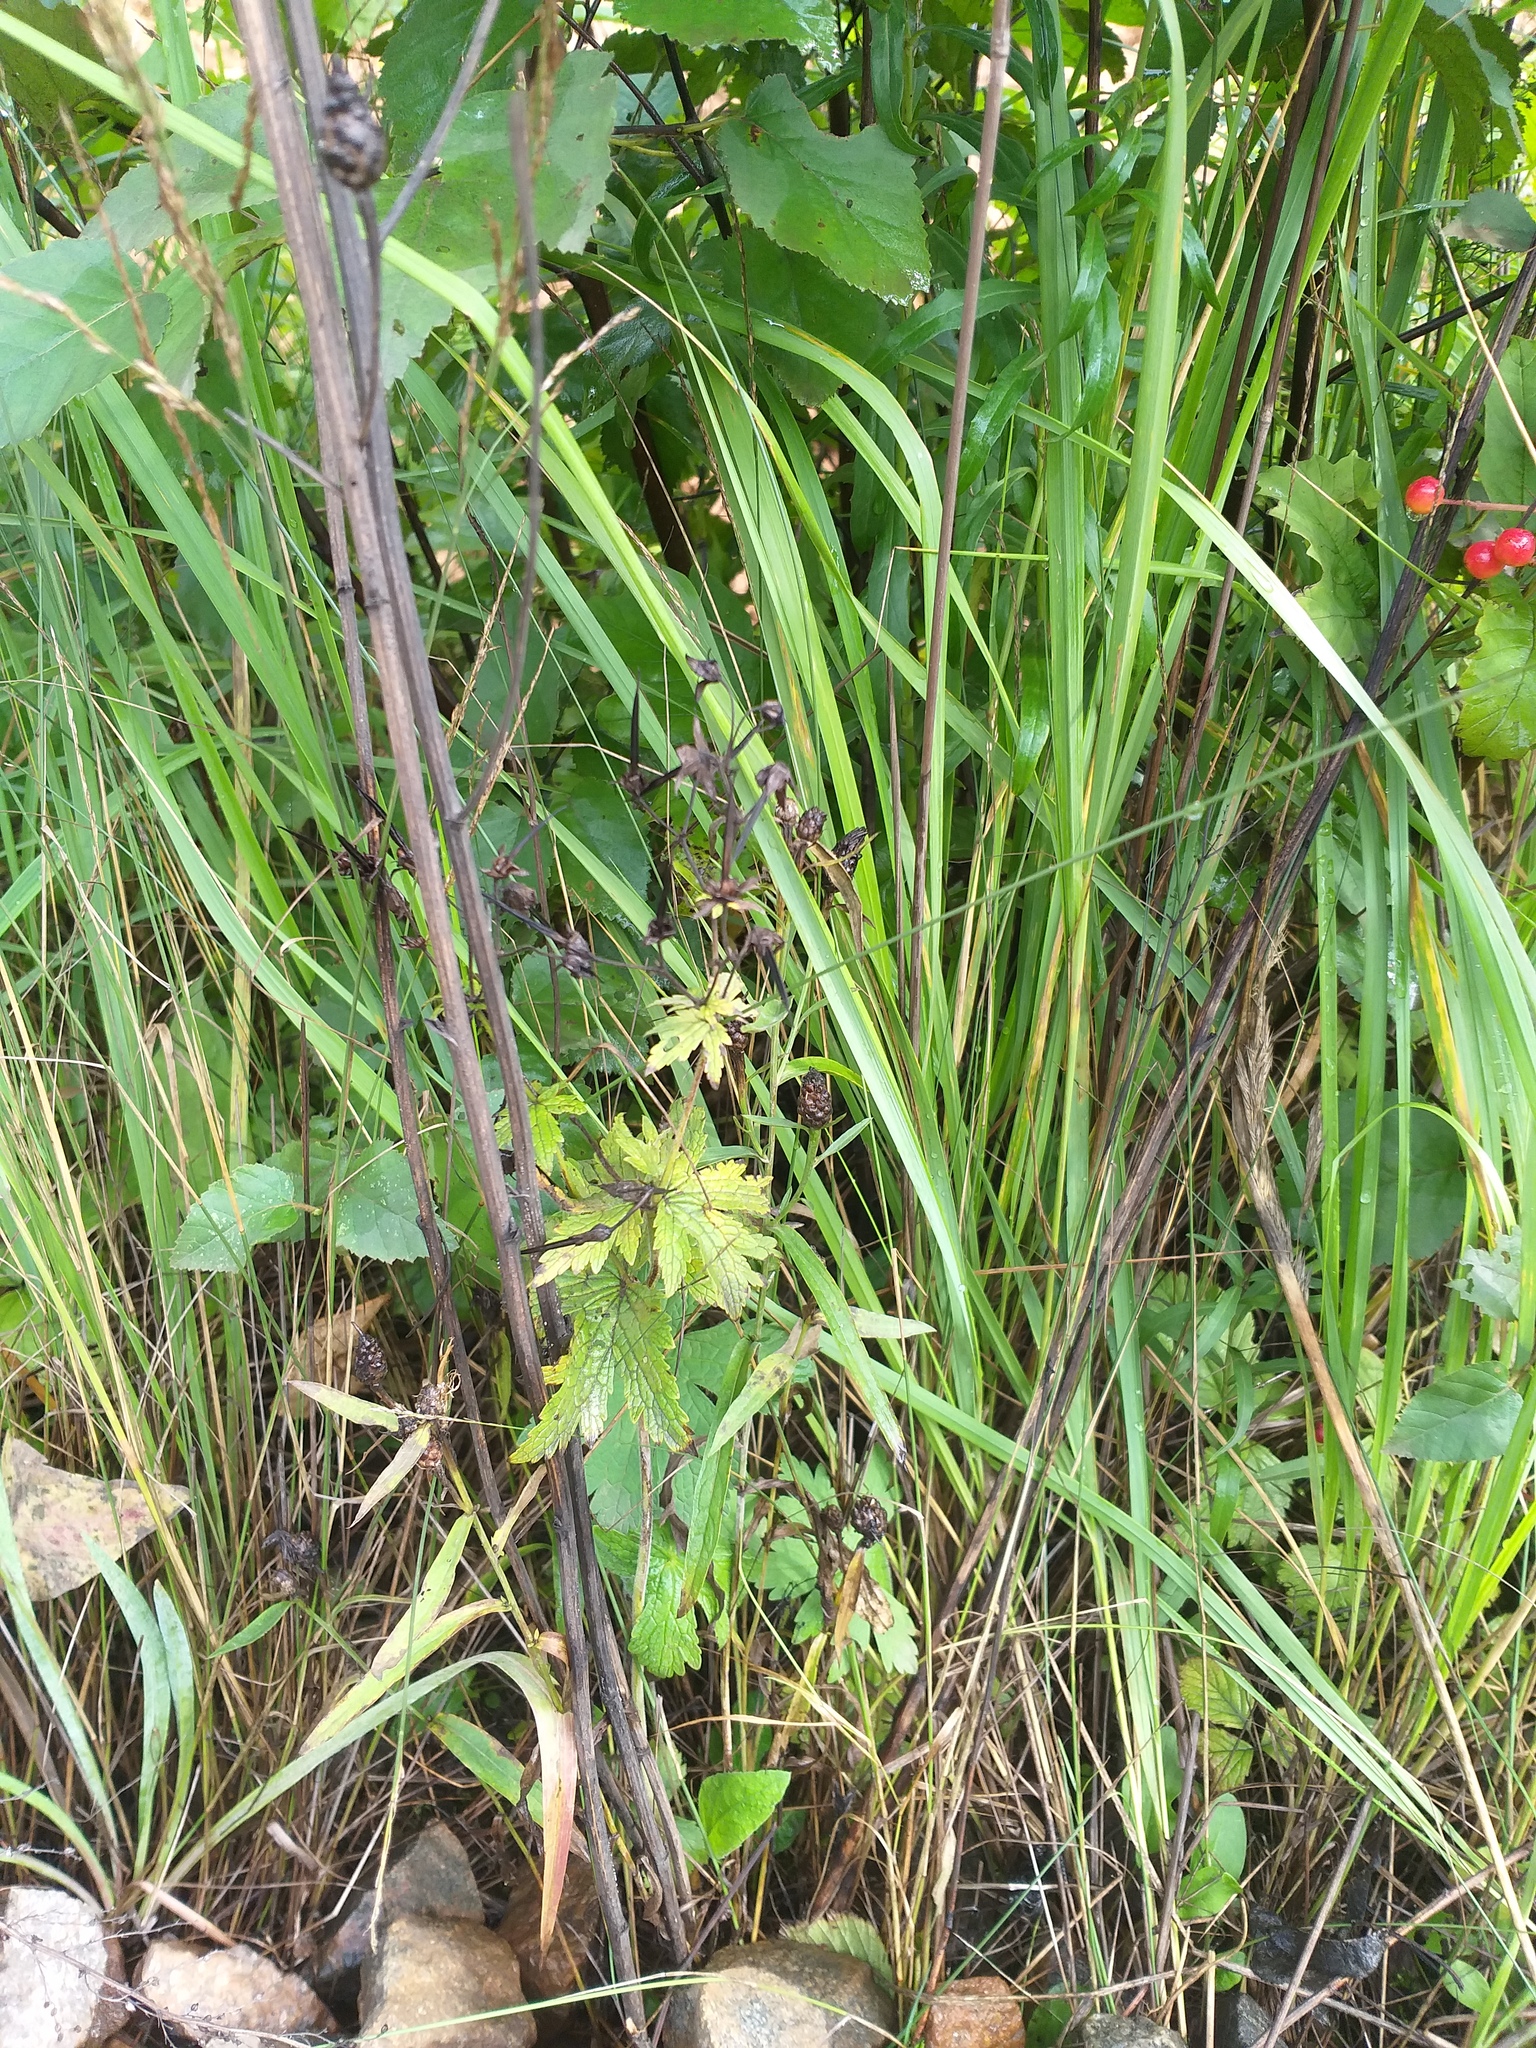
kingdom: Plantae
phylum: Tracheophyta
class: Magnoliopsida
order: Geraniales
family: Geraniaceae
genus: Geranium
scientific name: Geranium sylvaticum
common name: Wood crane's-bill
